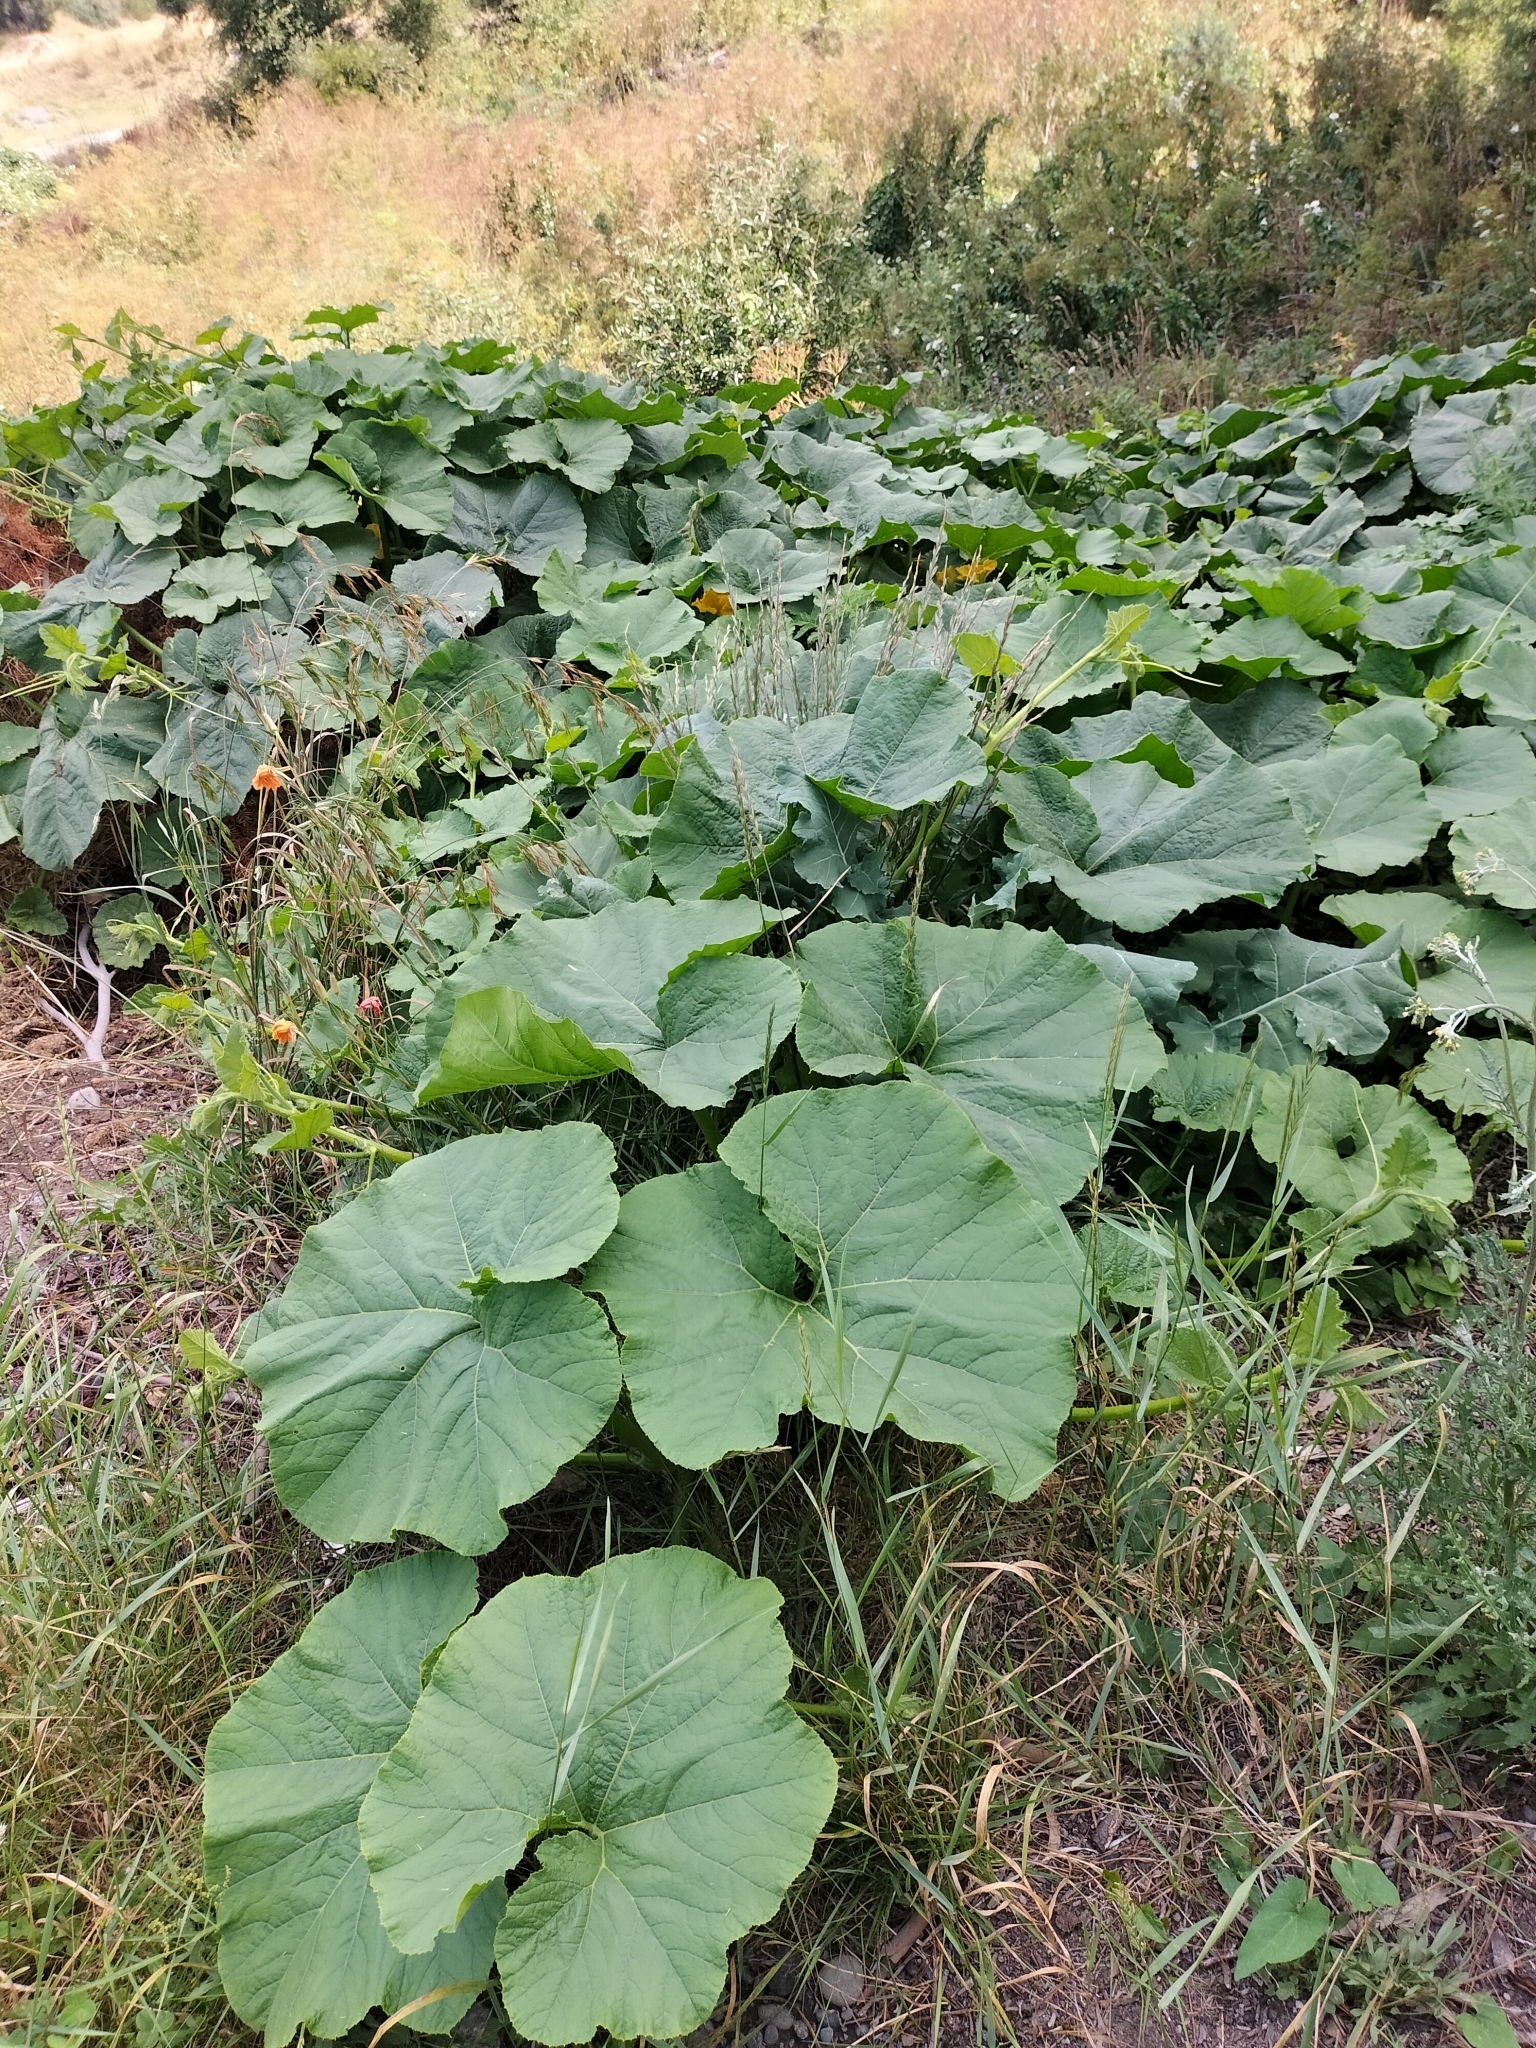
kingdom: Plantae
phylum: Tracheophyta
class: Magnoliopsida
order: Cucurbitales
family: Cucurbitaceae
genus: Cucurbita
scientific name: Cucurbita pepo
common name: Marrow
